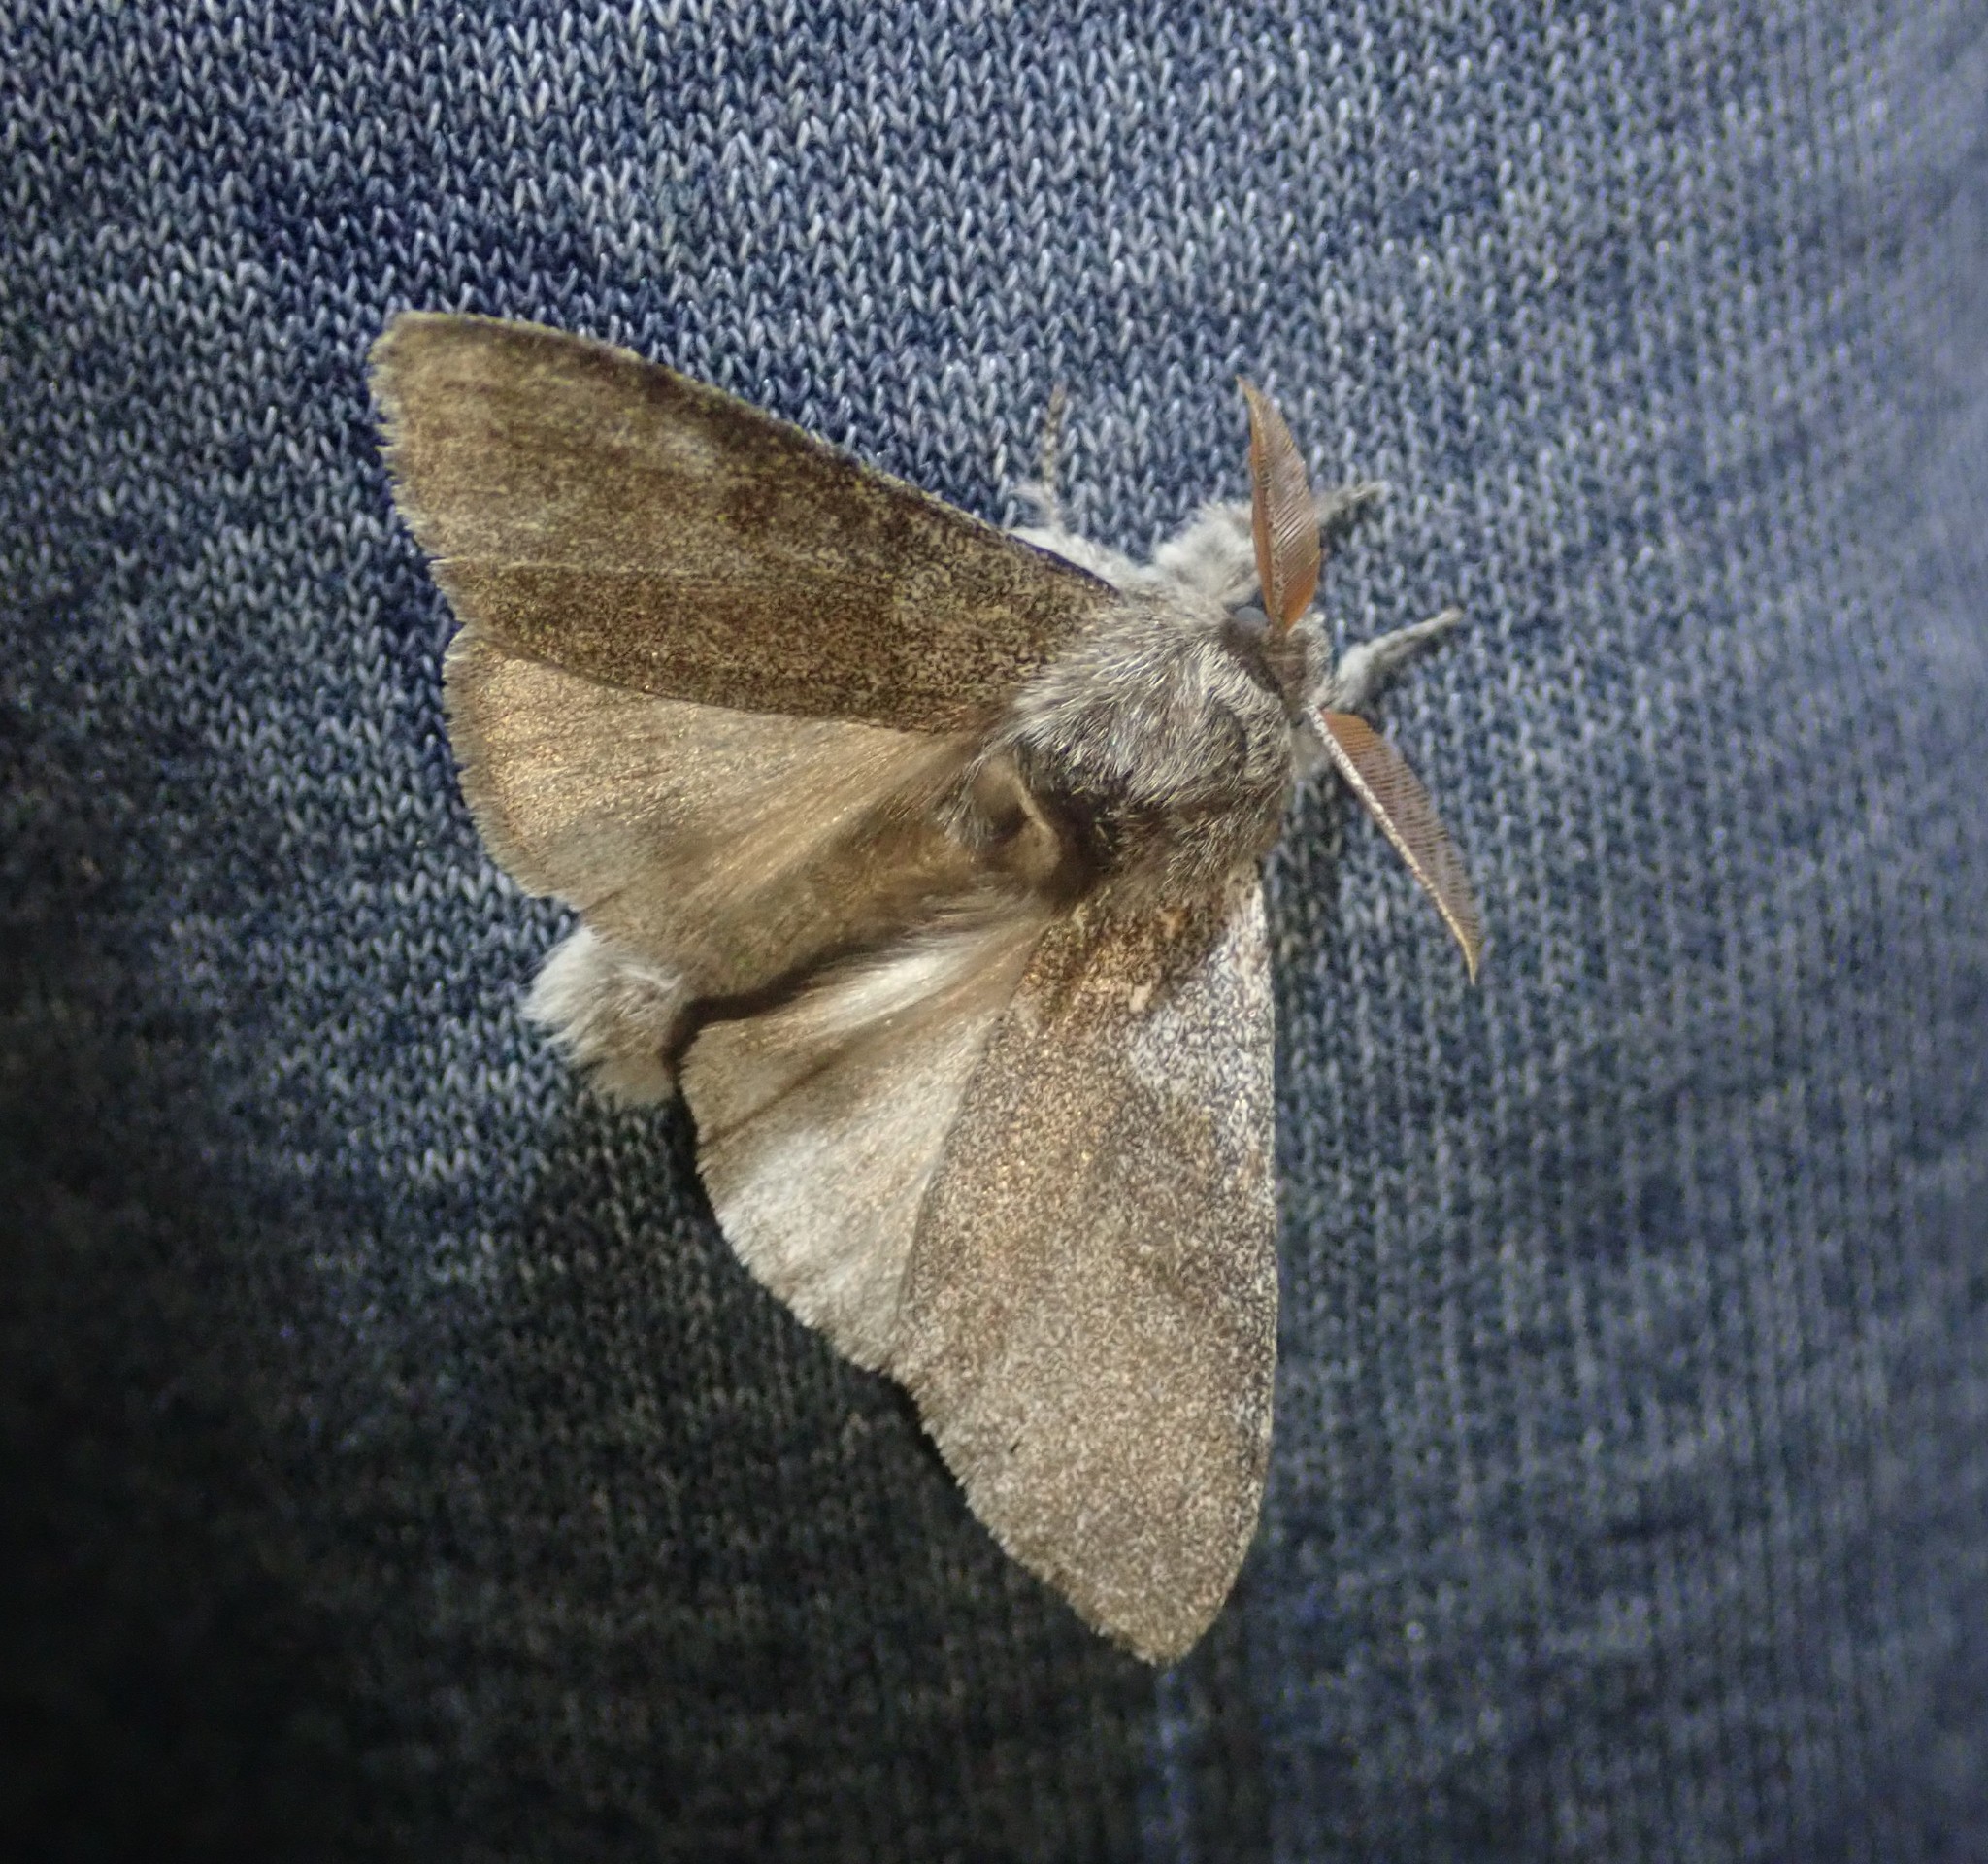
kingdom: Animalia
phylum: Arthropoda
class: Insecta
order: Lepidoptera
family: Erebidae
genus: Calliteara
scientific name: Calliteara pudibunda
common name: Pale tussock
